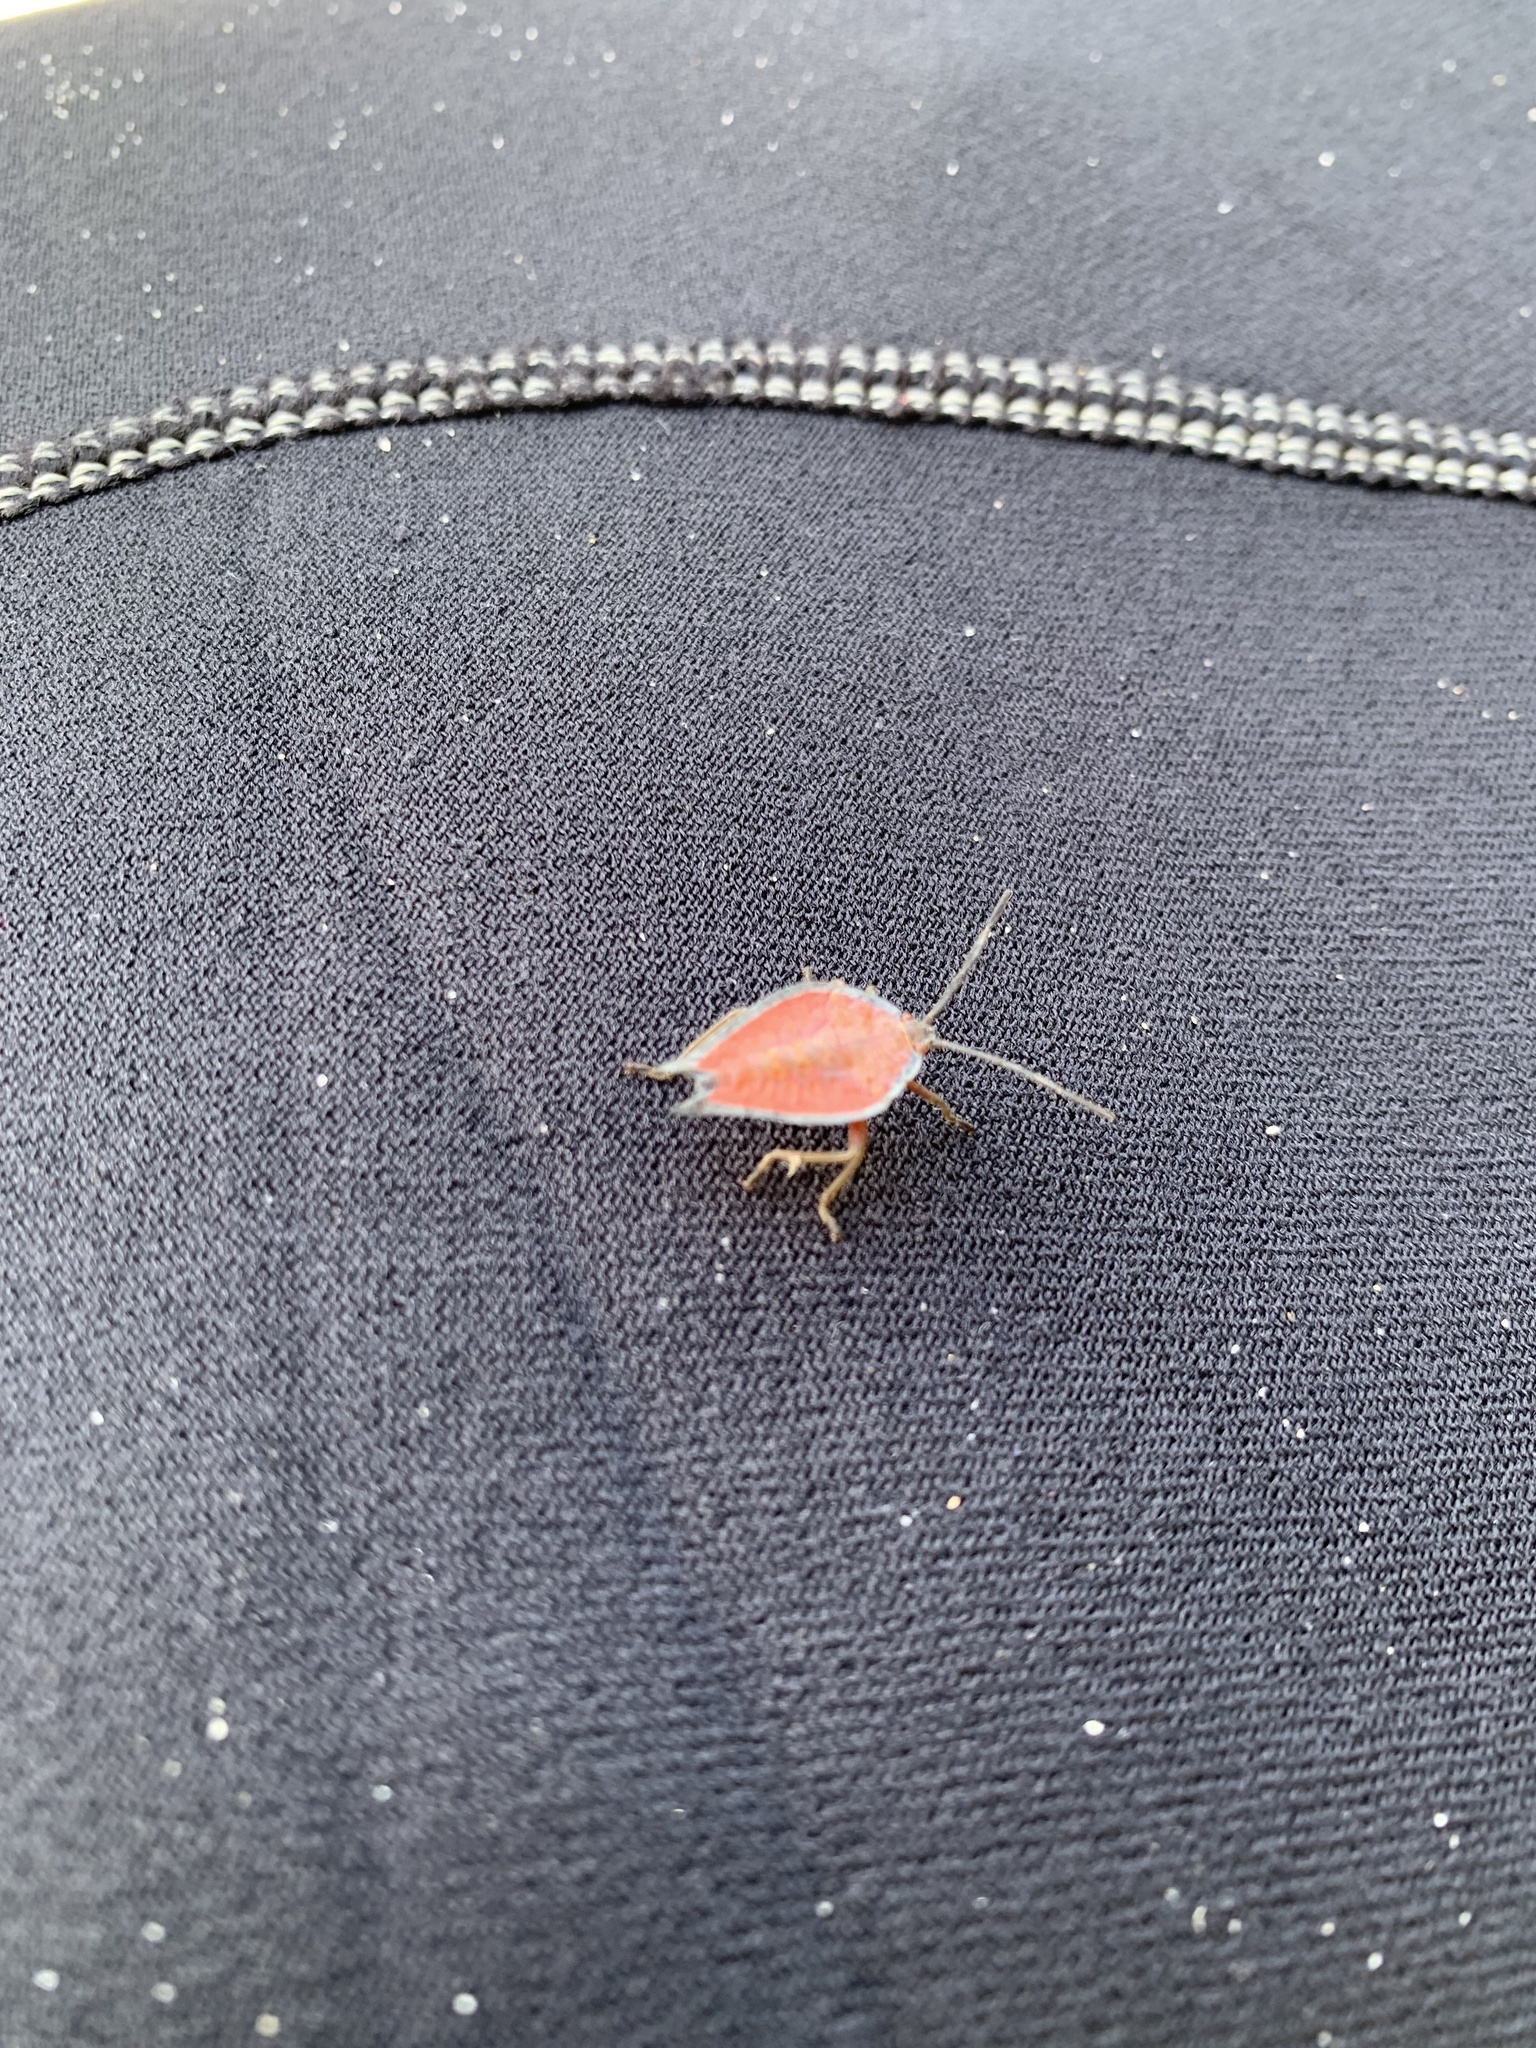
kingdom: Animalia
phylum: Arthropoda
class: Insecta
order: Hemiptera
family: Tessaratomidae
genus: Lyramorpha
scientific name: Lyramorpha rosea
